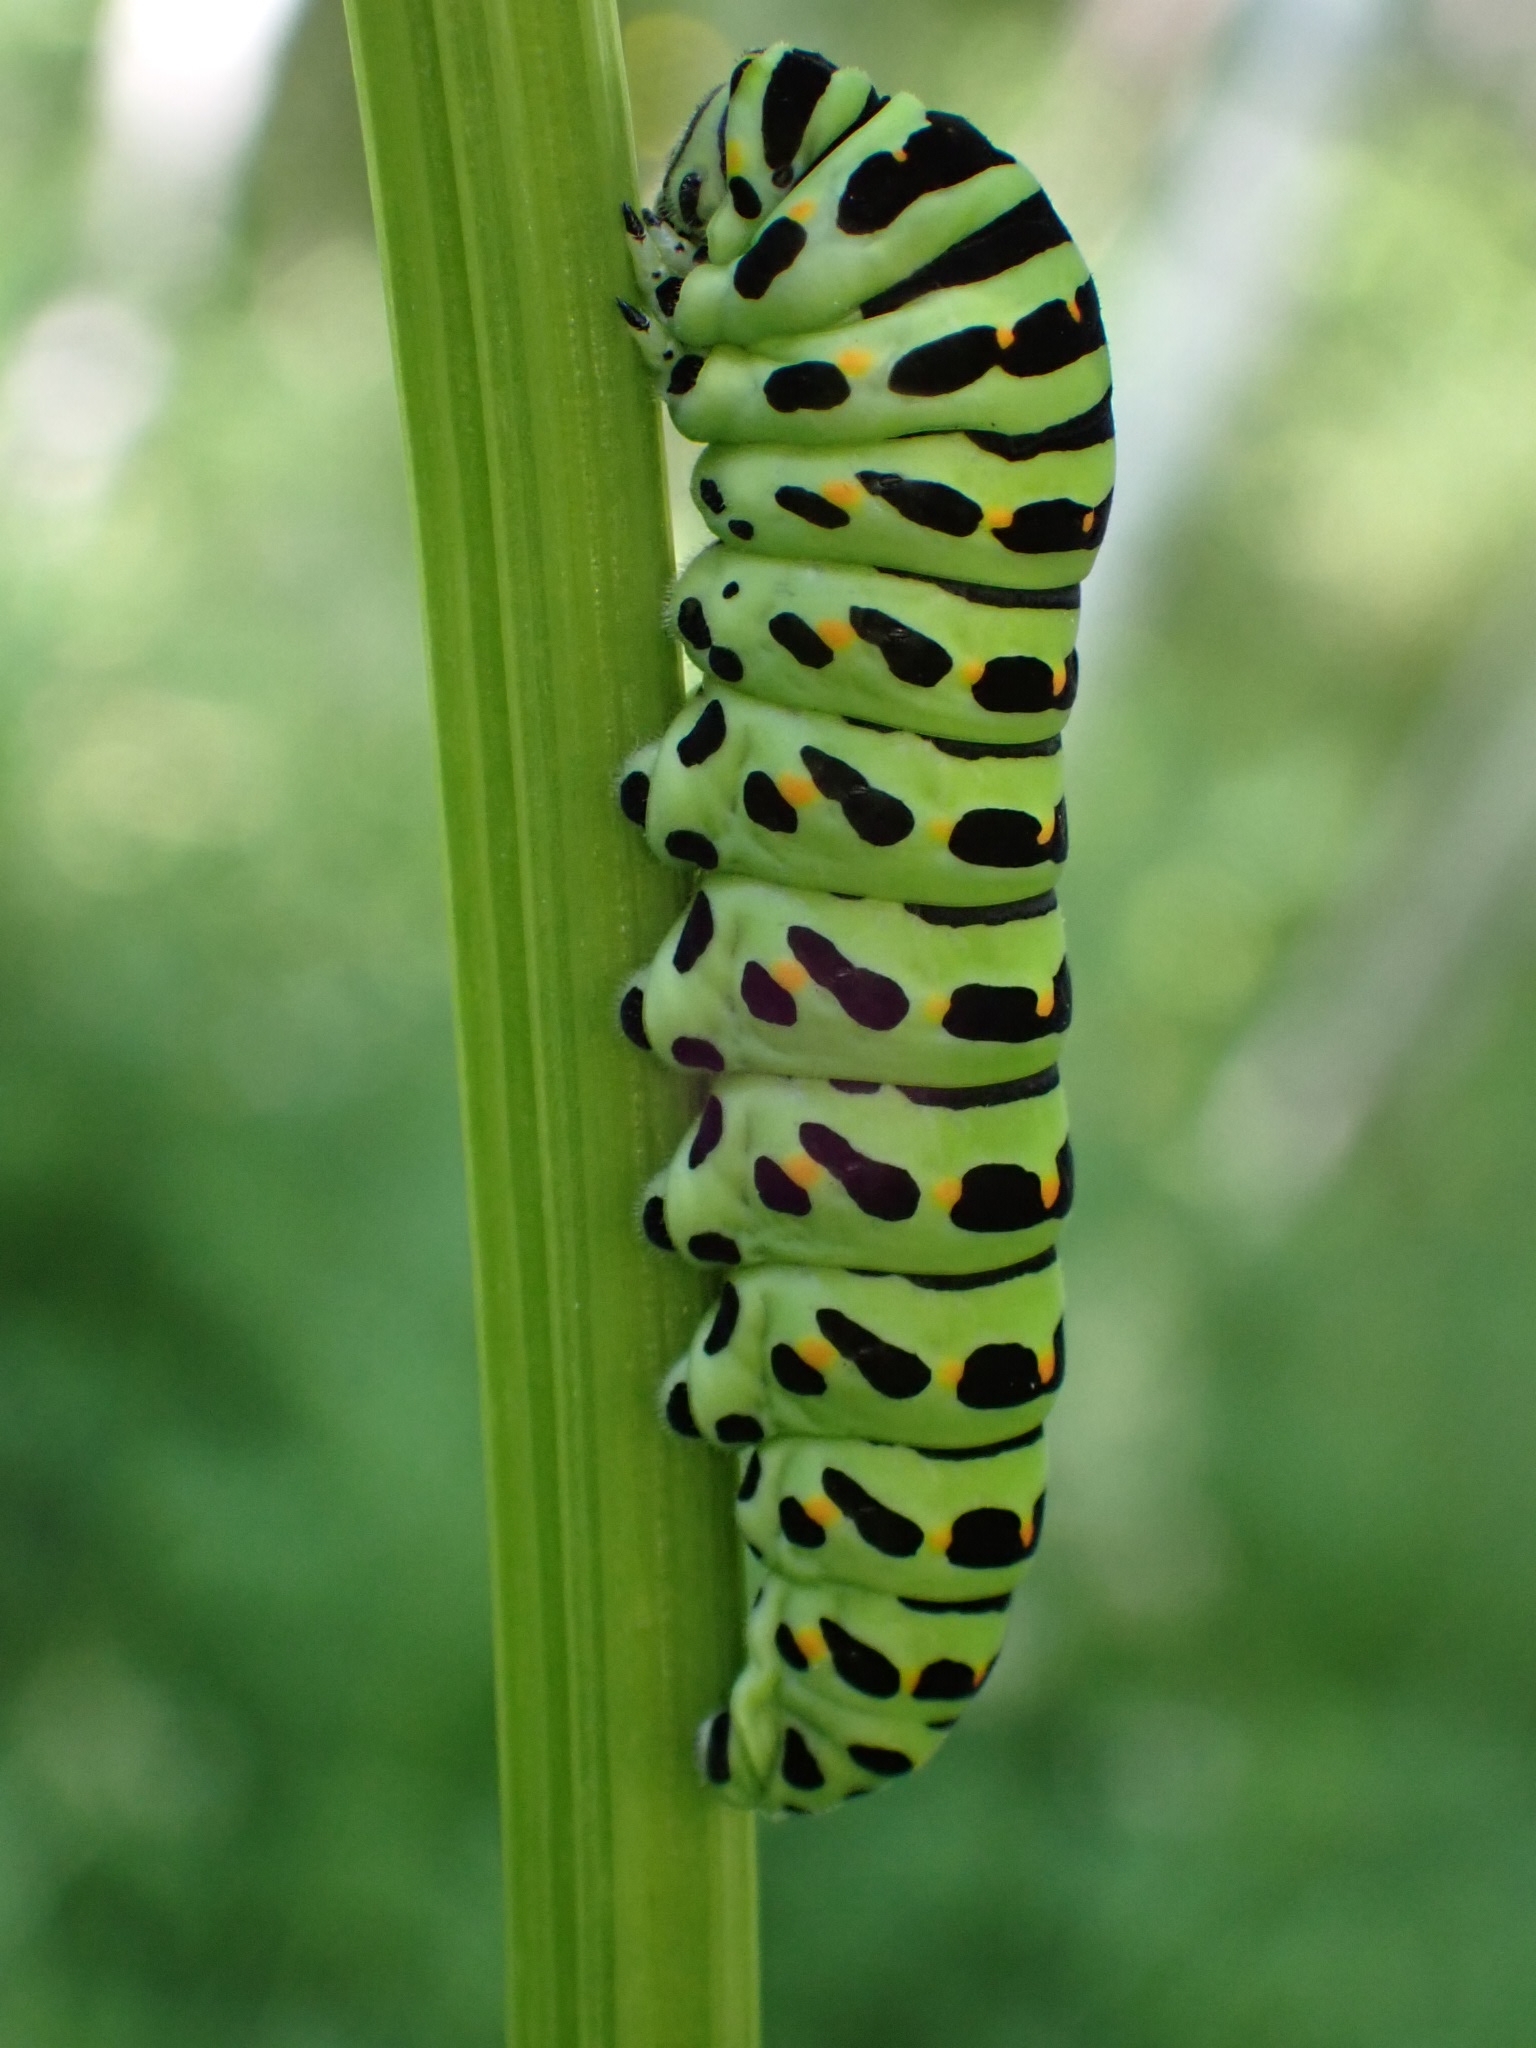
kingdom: Animalia
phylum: Arthropoda
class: Insecta
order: Lepidoptera
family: Papilionidae
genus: Papilio
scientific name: Papilio machaon
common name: Swallowtail
